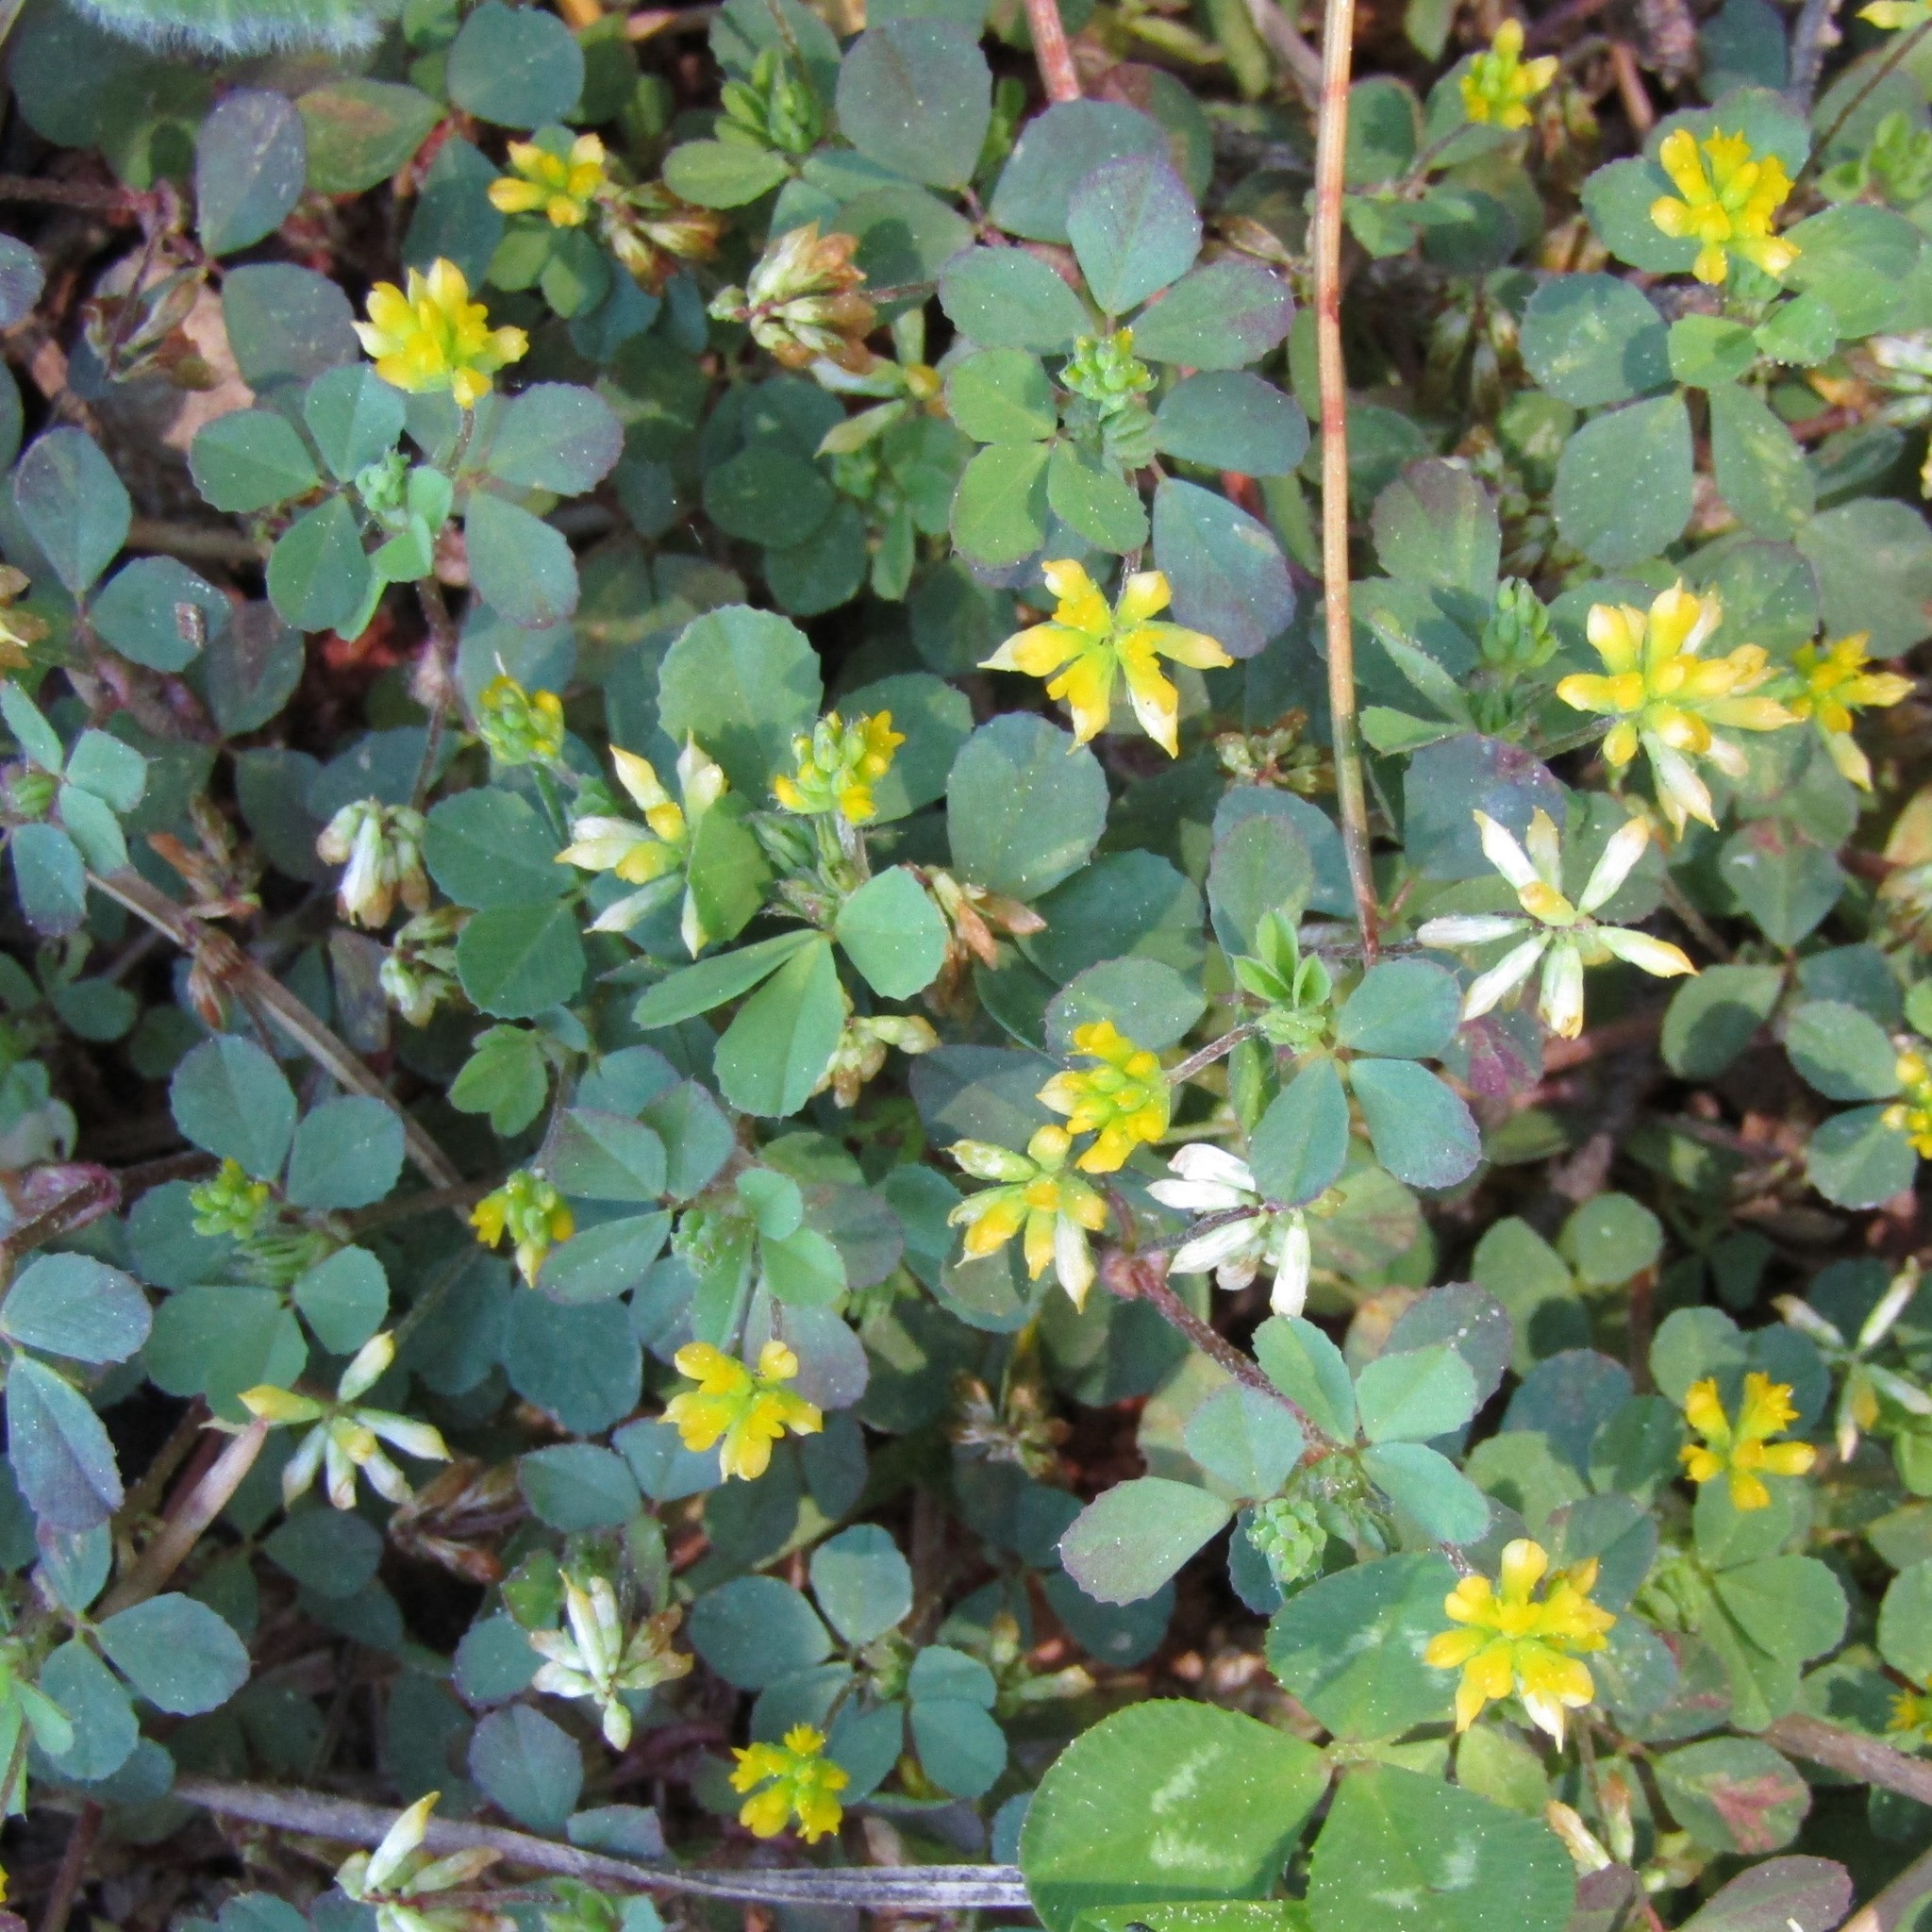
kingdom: Plantae
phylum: Tracheophyta
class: Magnoliopsida
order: Fabales
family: Fabaceae
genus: Trifolium
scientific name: Trifolium dubium
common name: Suckling clover
